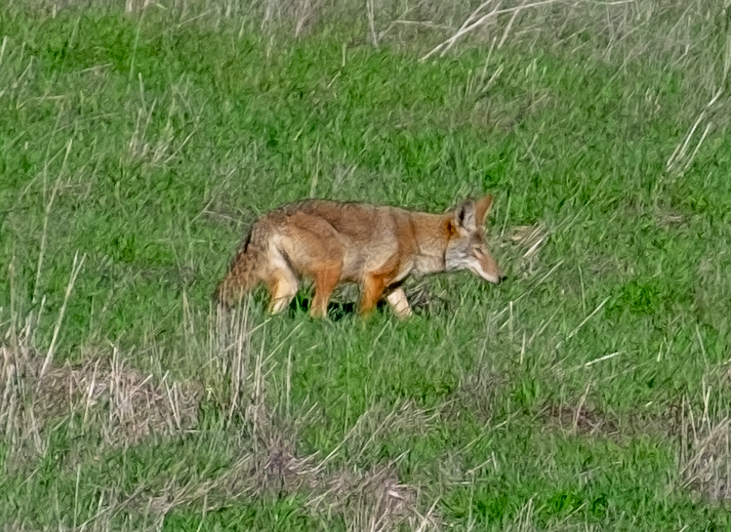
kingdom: Animalia
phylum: Chordata
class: Mammalia
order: Carnivora
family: Canidae
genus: Canis
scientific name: Canis latrans
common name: Coyote
